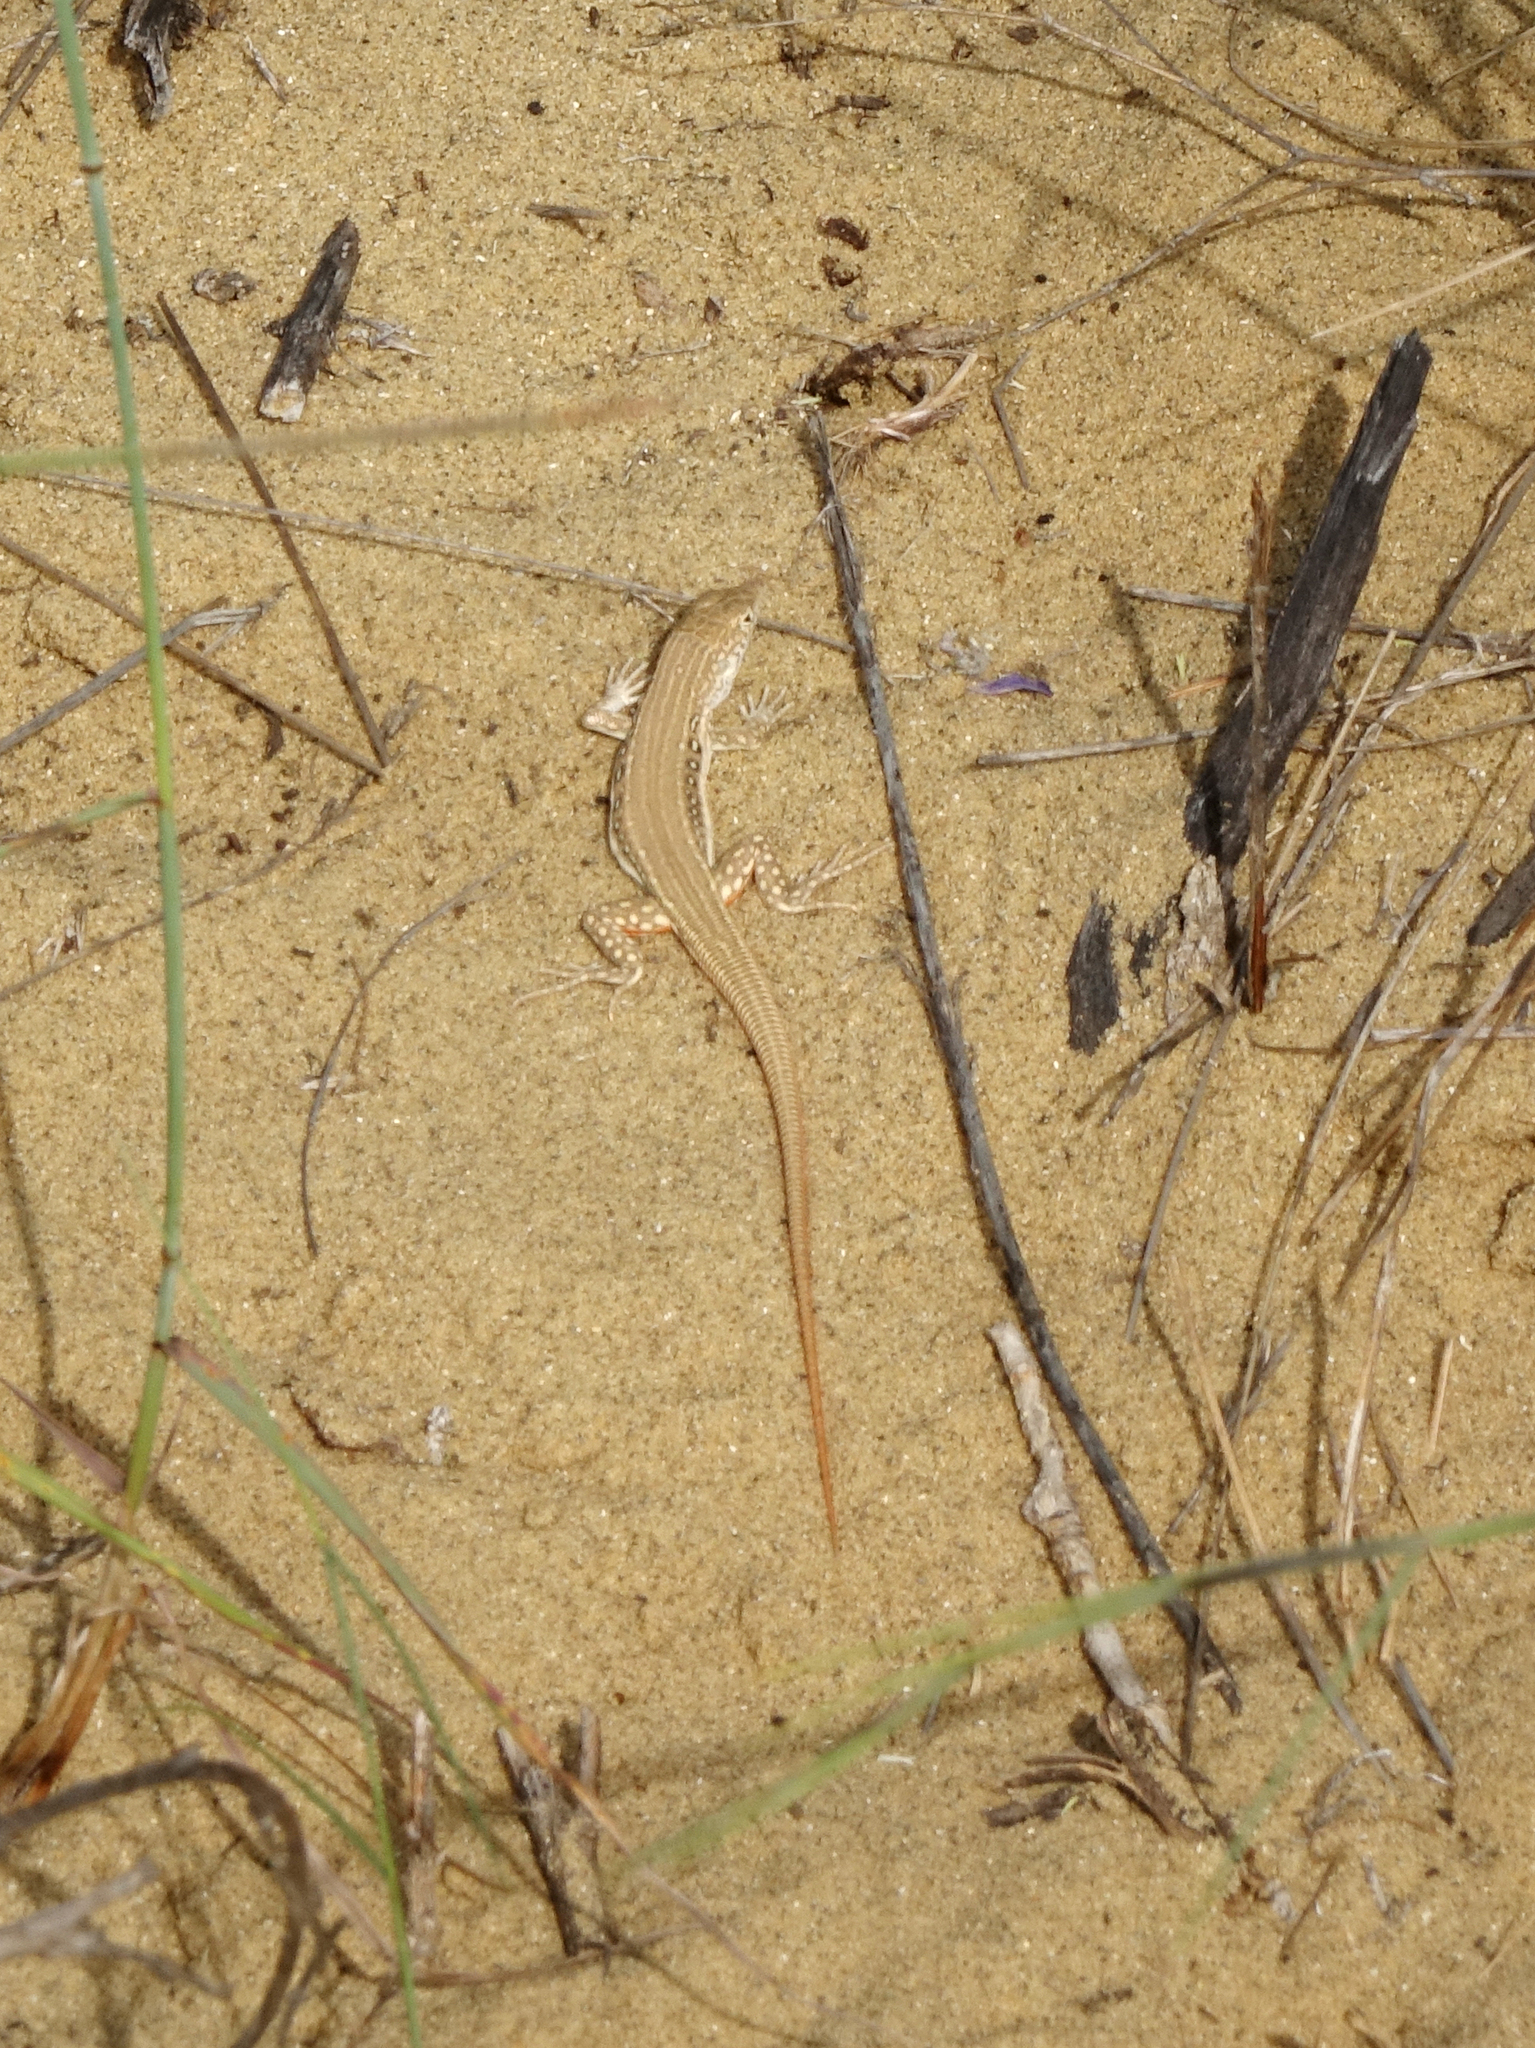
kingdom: Animalia
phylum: Chordata
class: Squamata
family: Lacertidae
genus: Eremias
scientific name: Eremias velox
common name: Central asian racerunner
